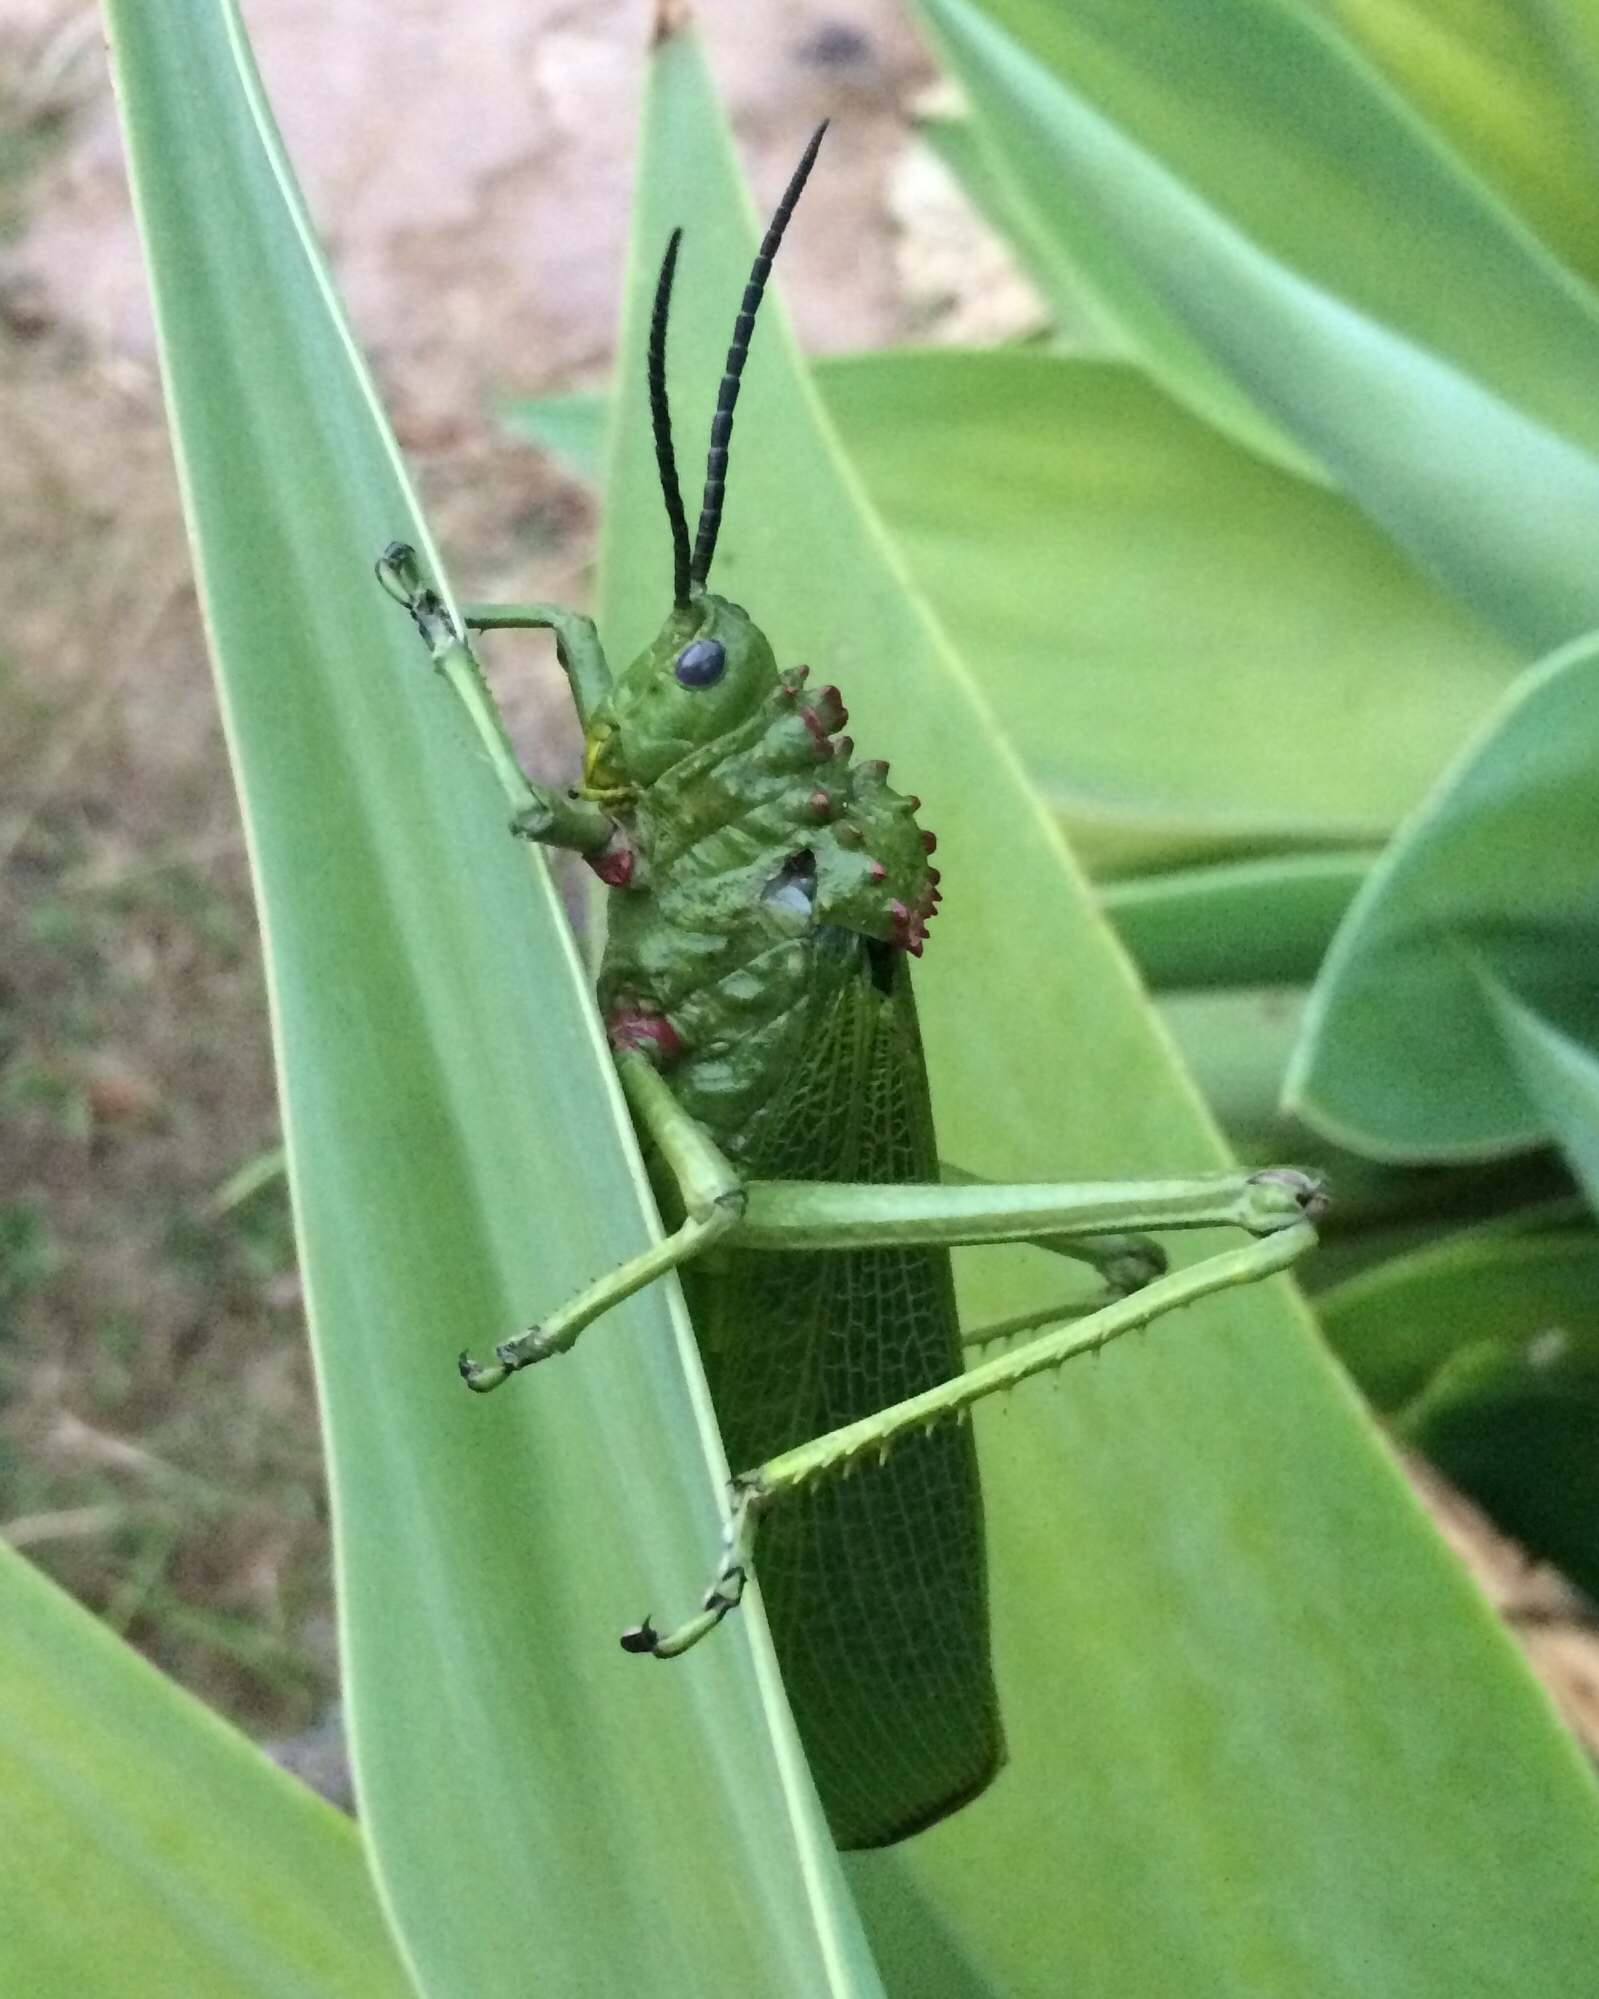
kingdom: Animalia
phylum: Arthropoda
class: Insecta
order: Orthoptera
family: Pyrgomorphidae
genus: Phymateus
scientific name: Phymateus viridipes
